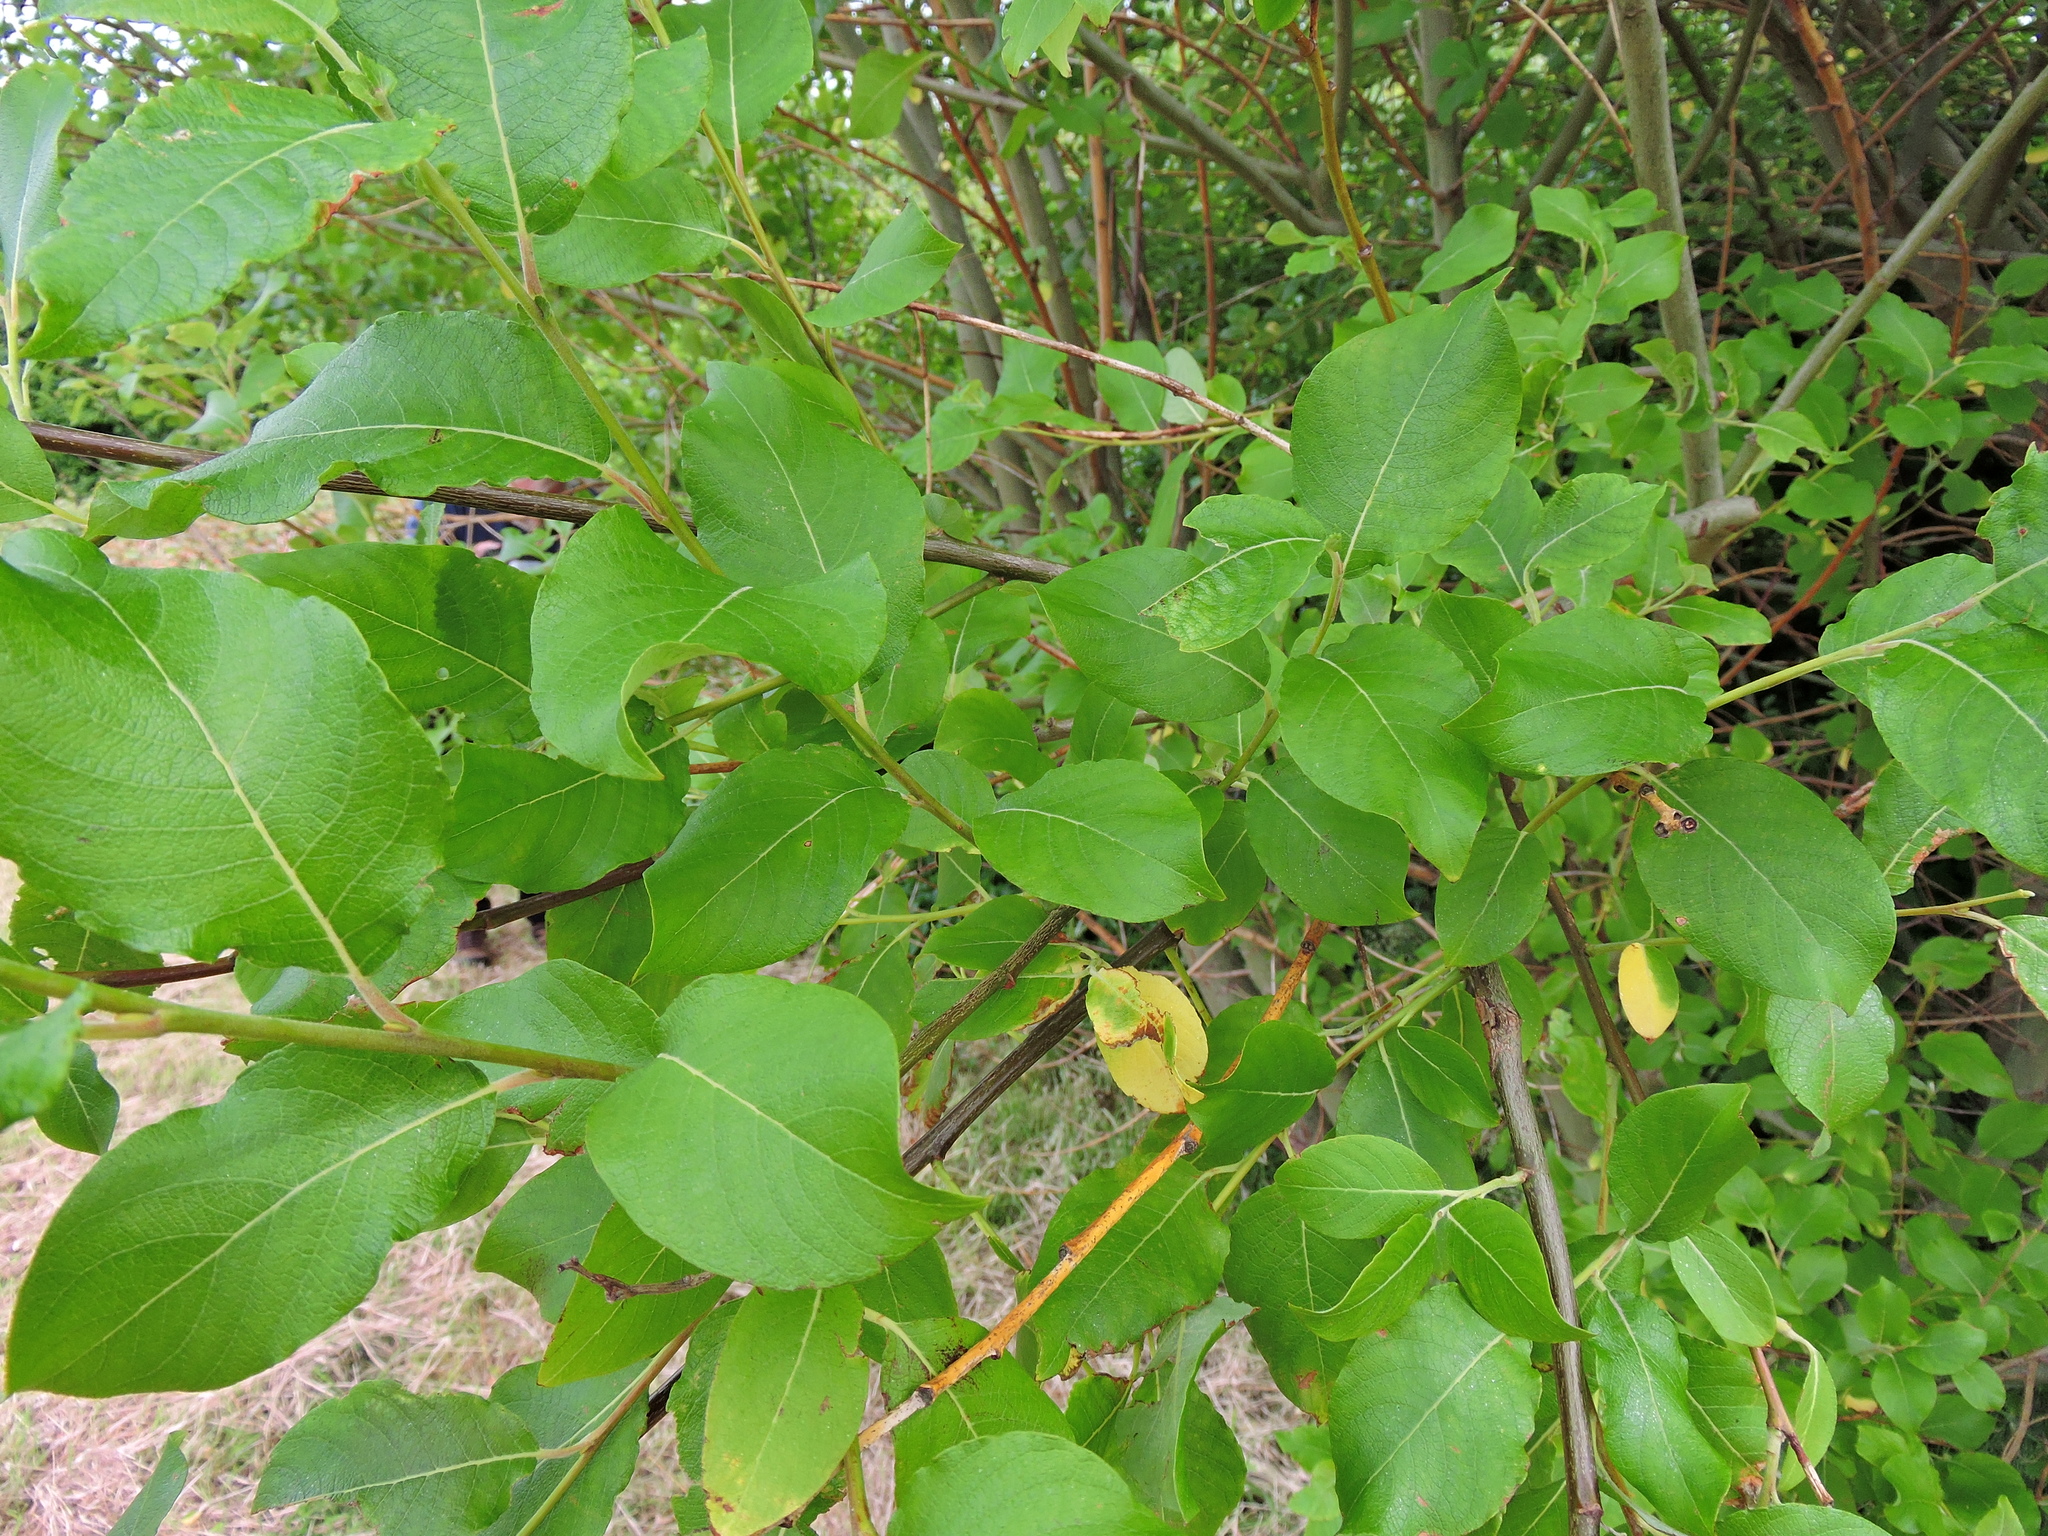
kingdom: Plantae
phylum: Tracheophyta
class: Magnoliopsida
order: Malpighiales
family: Salicaceae
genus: Salix
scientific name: Salix caprea
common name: Goat willow
